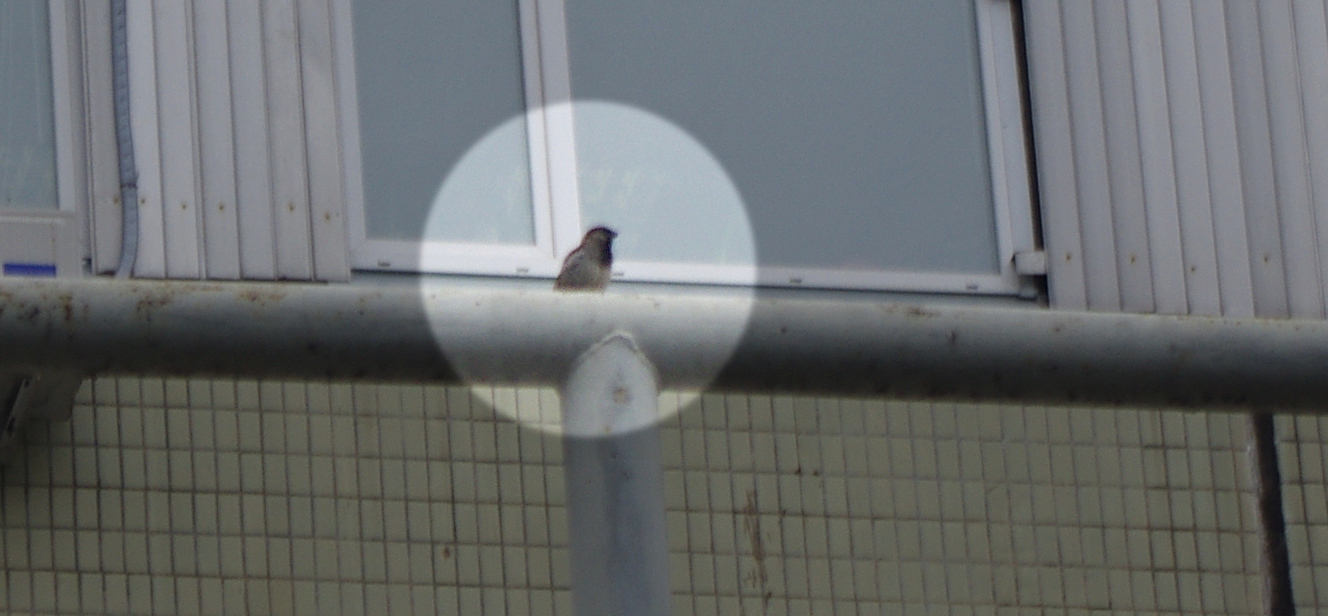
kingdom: Animalia
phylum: Chordata
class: Aves
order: Passeriformes
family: Passeridae
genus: Passer
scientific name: Passer domesticus
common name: House sparrow
